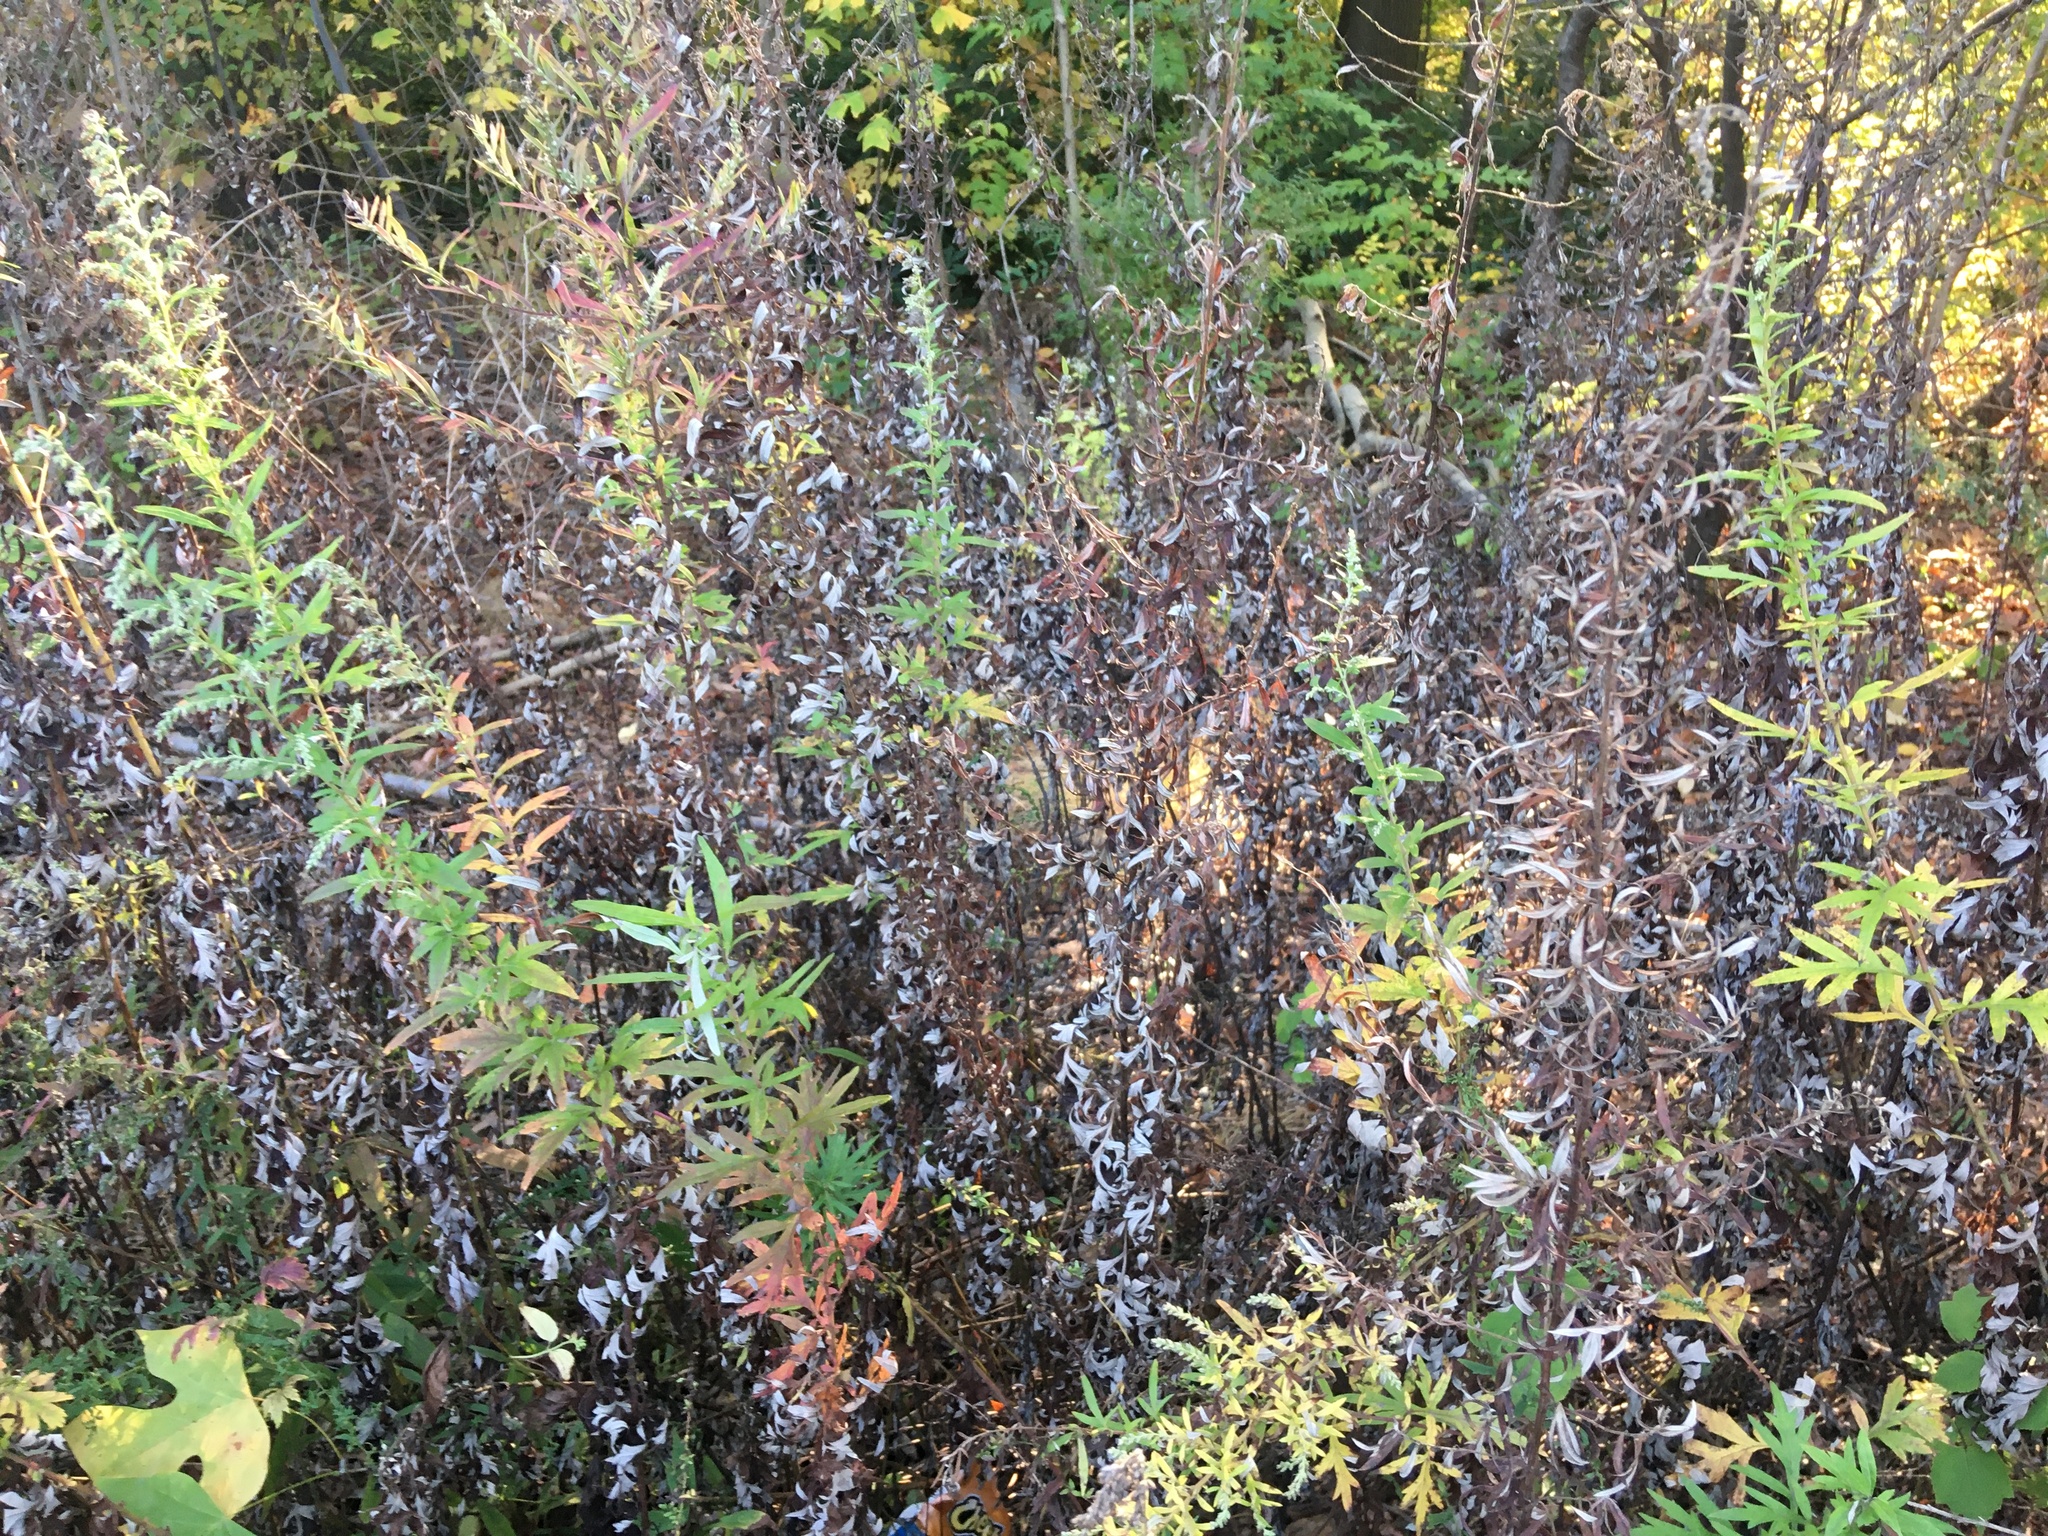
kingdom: Plantae
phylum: Tracheophyta
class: Magnoliopsida
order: Asterales
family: Asteraceae
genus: Artemisia
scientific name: Artemisia vulgaris
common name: Mugwort
